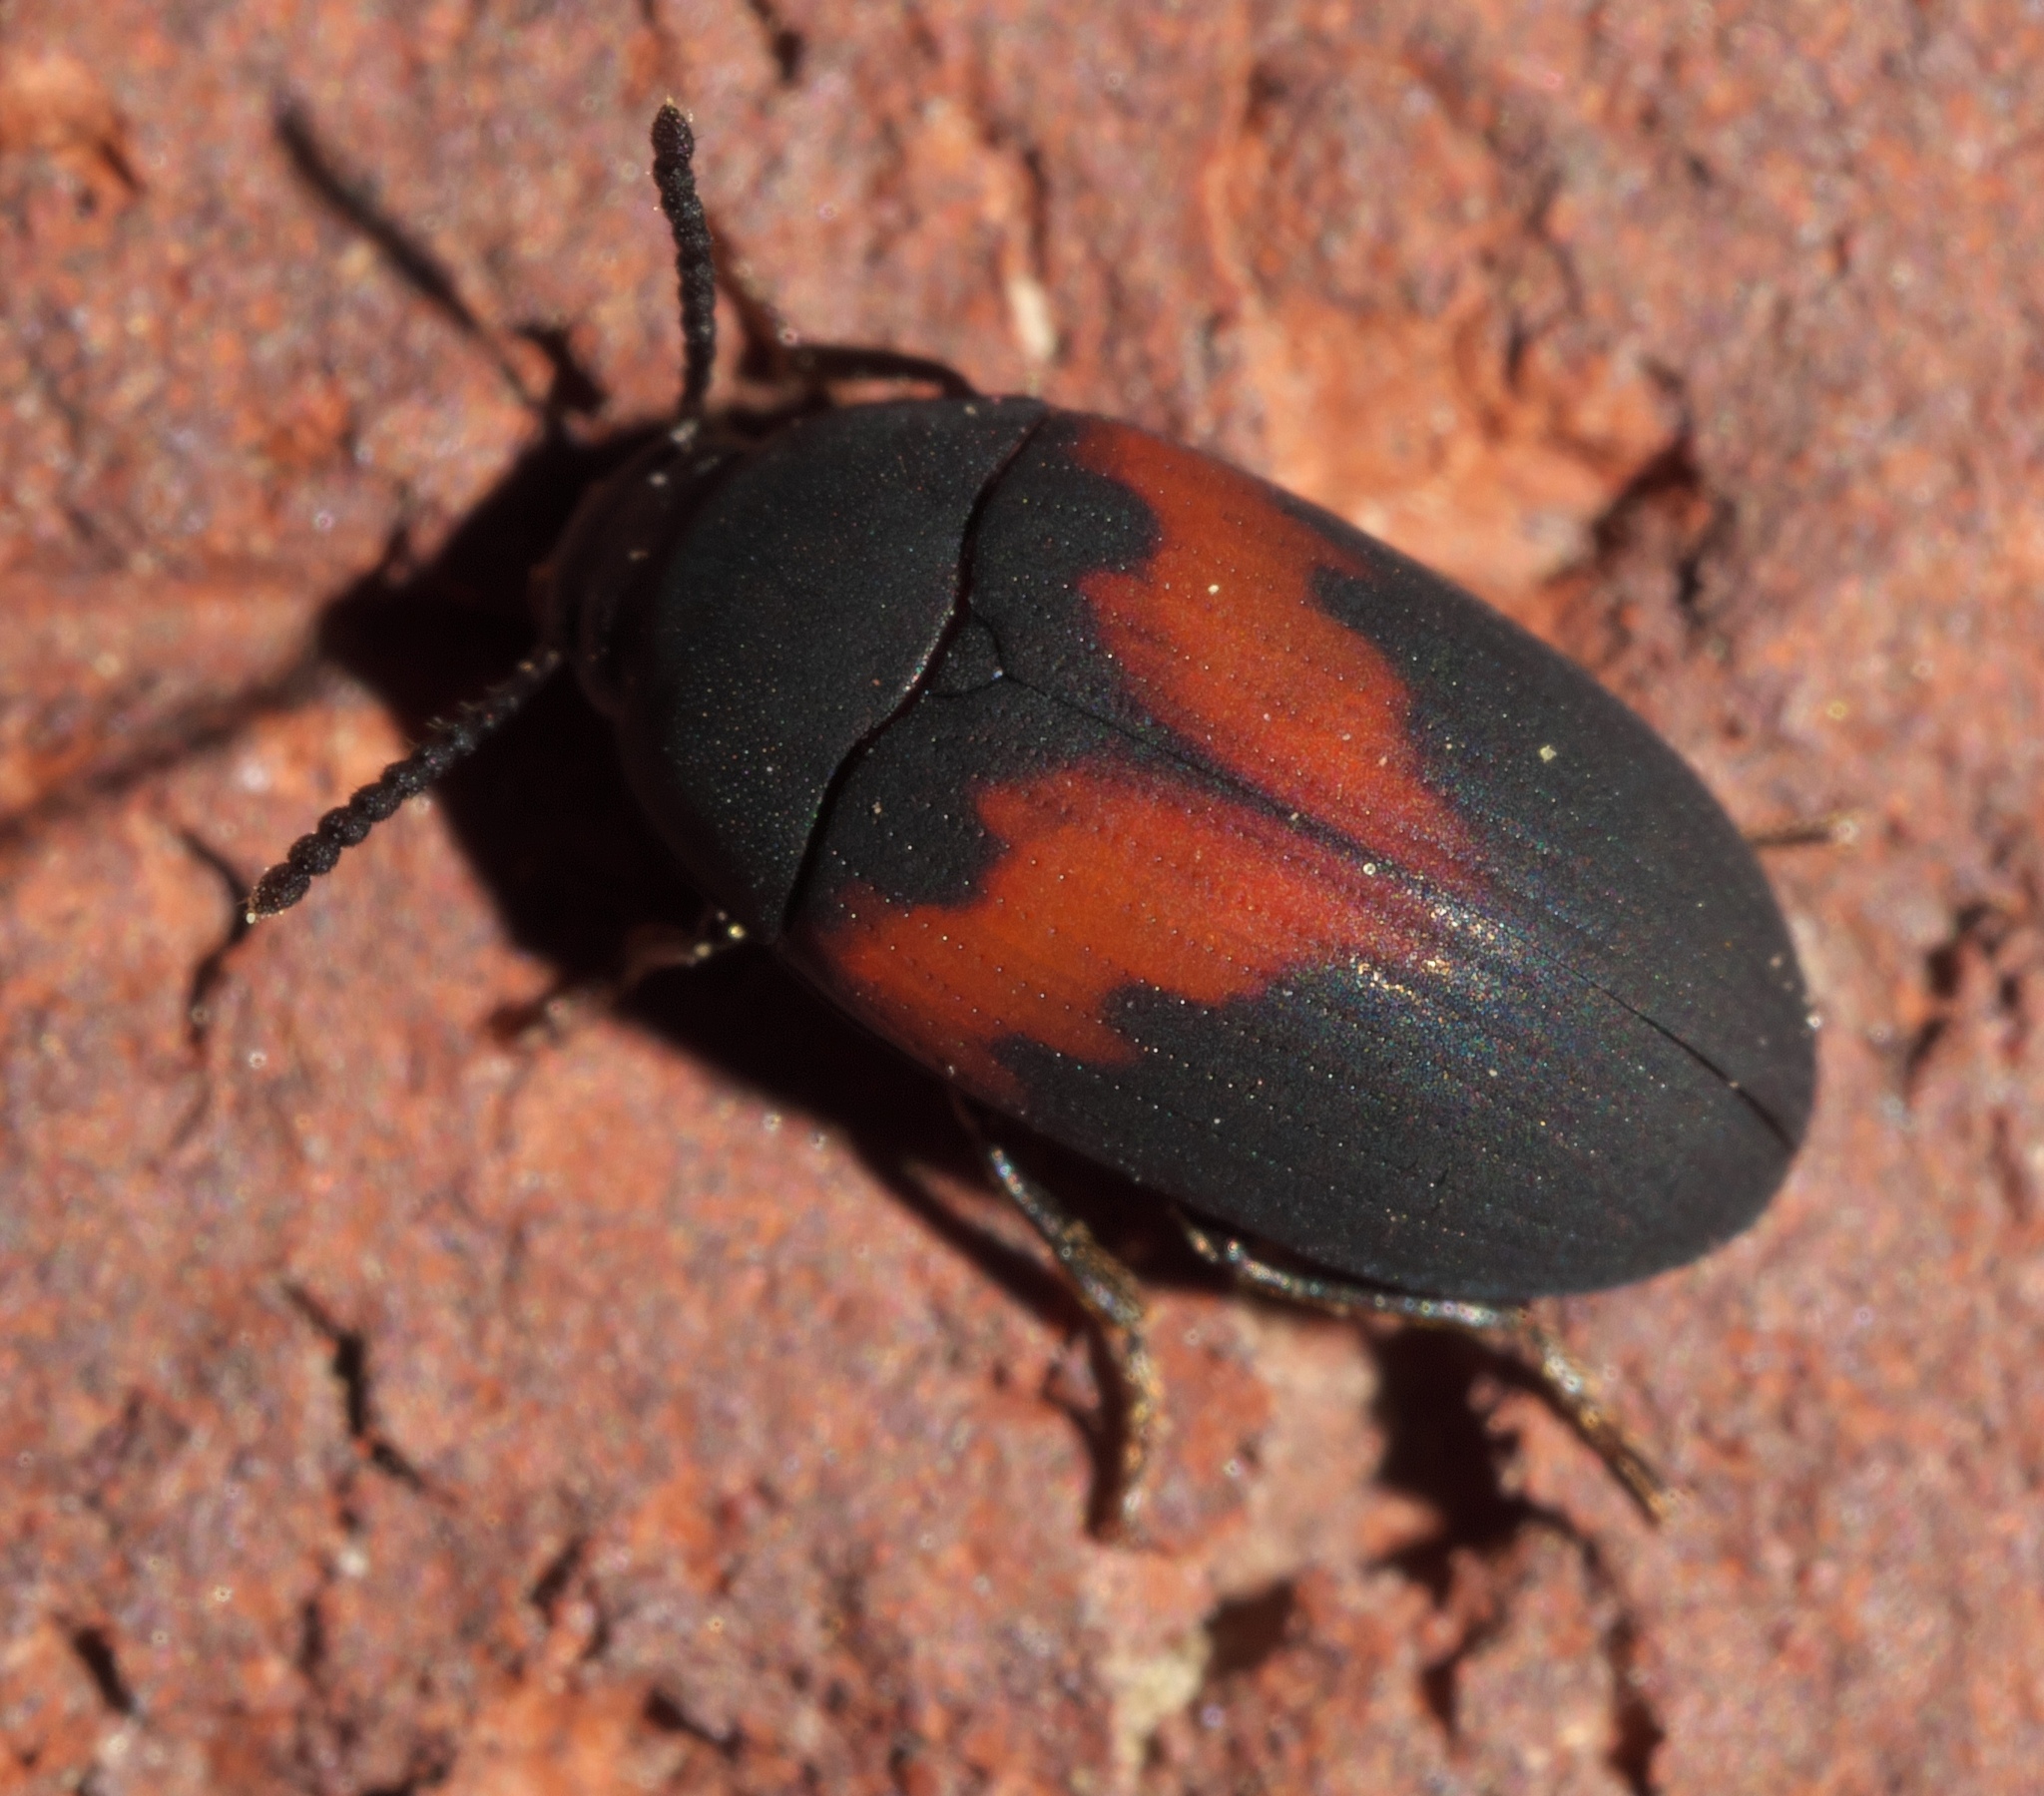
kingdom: Animalia
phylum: Arthropoda
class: Insecta
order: Coleoptera
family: Tenebrionidae
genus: Platydema
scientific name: Platydema elliptica
